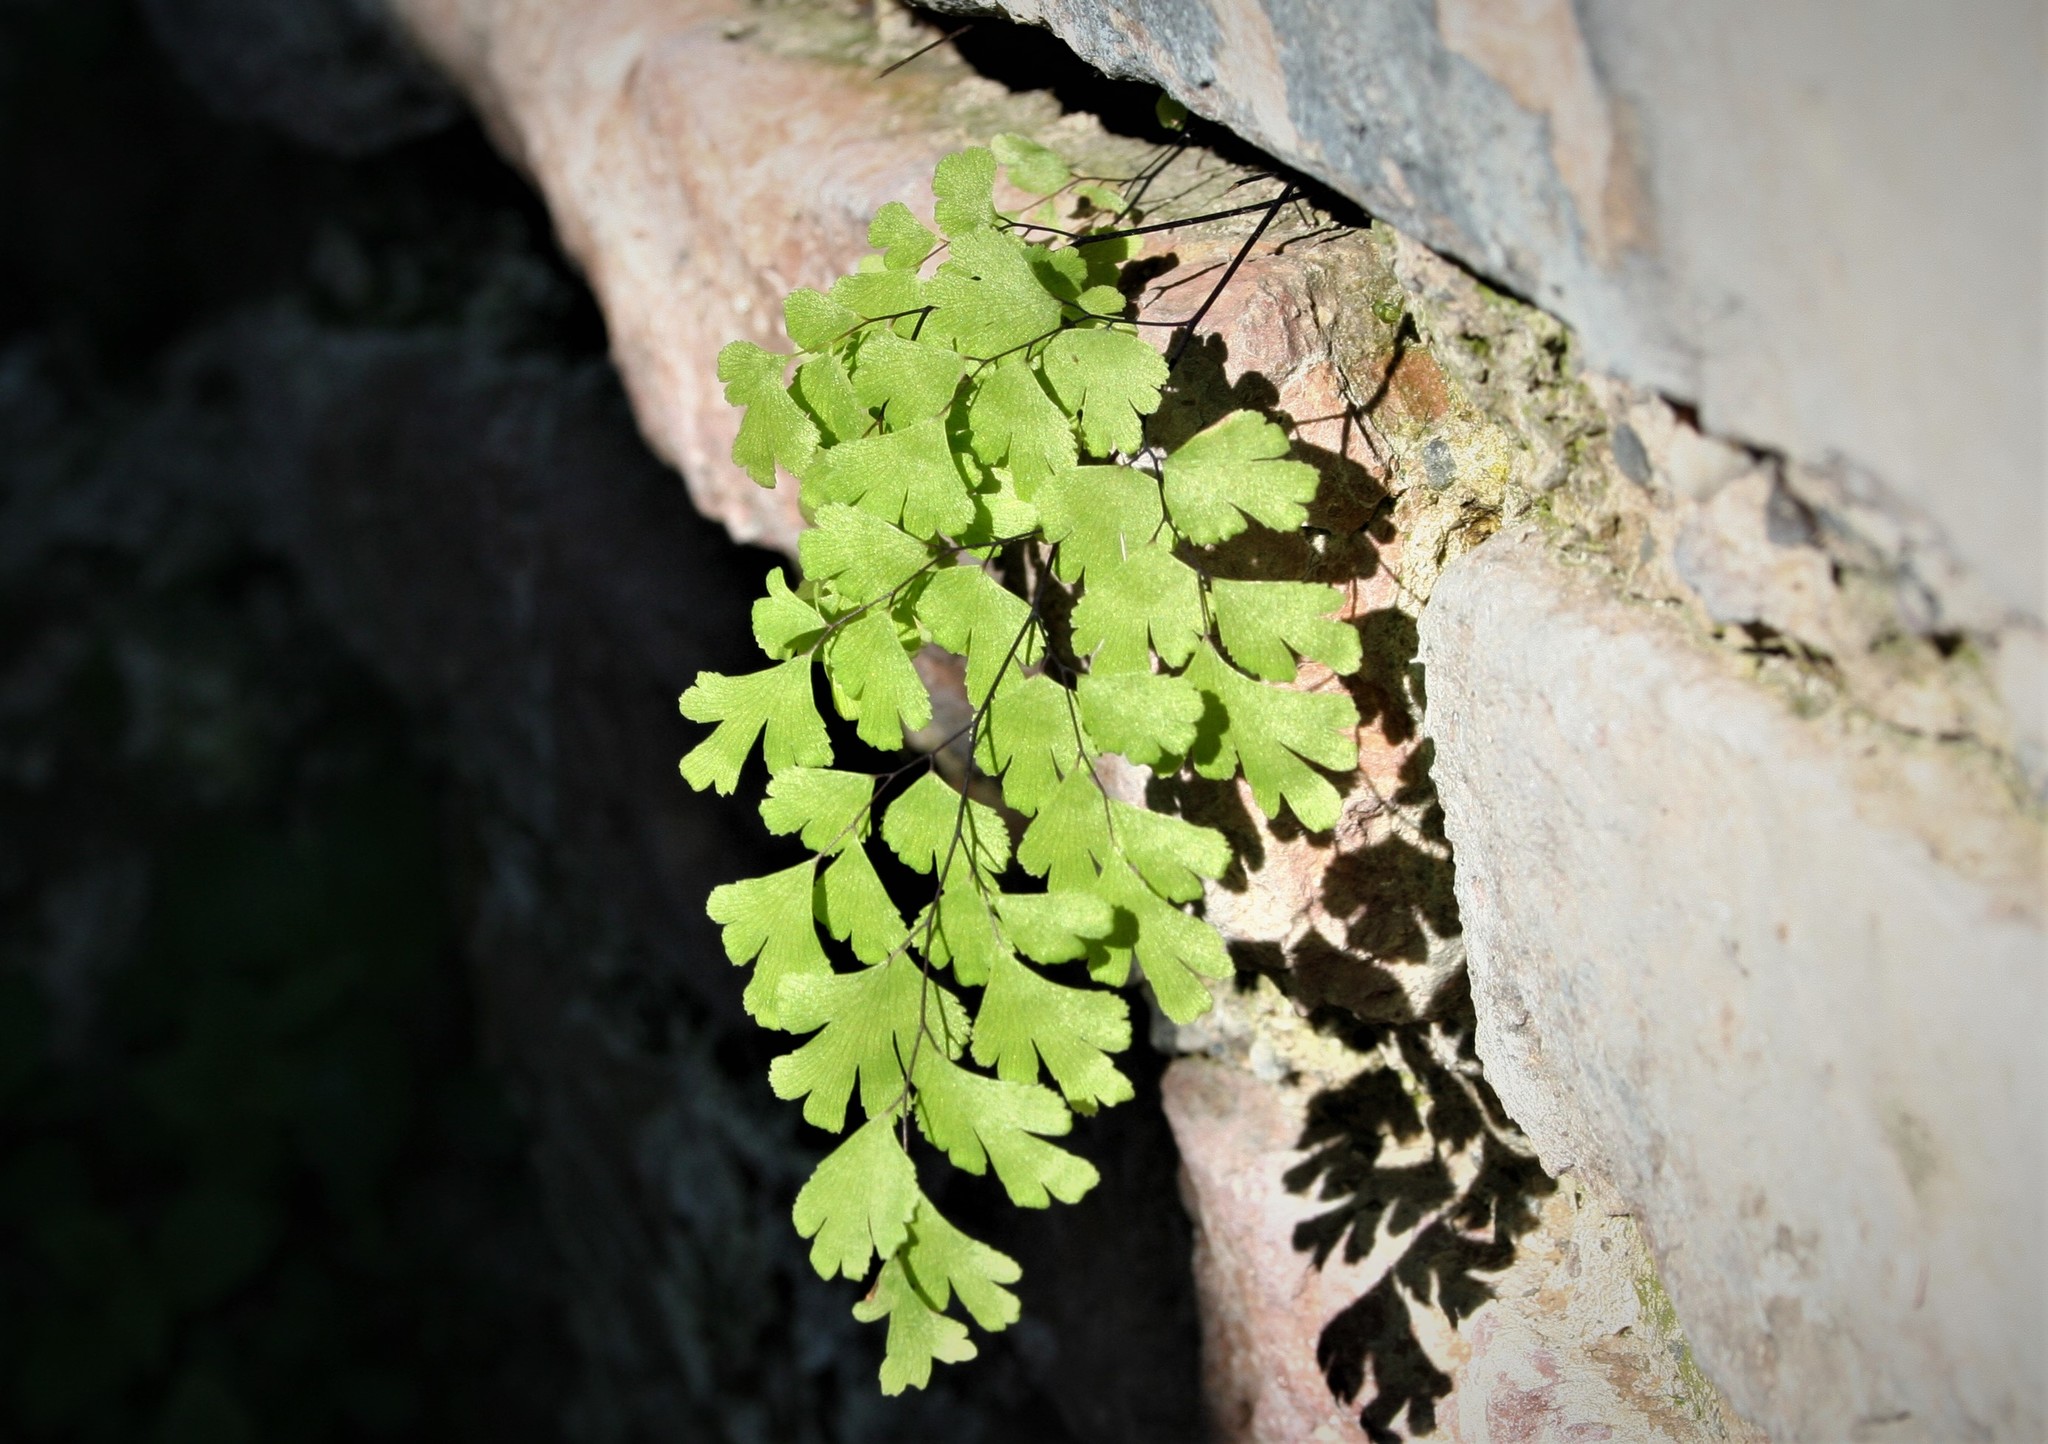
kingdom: Plantae
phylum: Tracheophyta
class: Polypodiopsida
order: Polypodiales
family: Pteridaceae
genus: Adiantum
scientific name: Adiantum capillus-veneris
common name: Maidenhair fern
